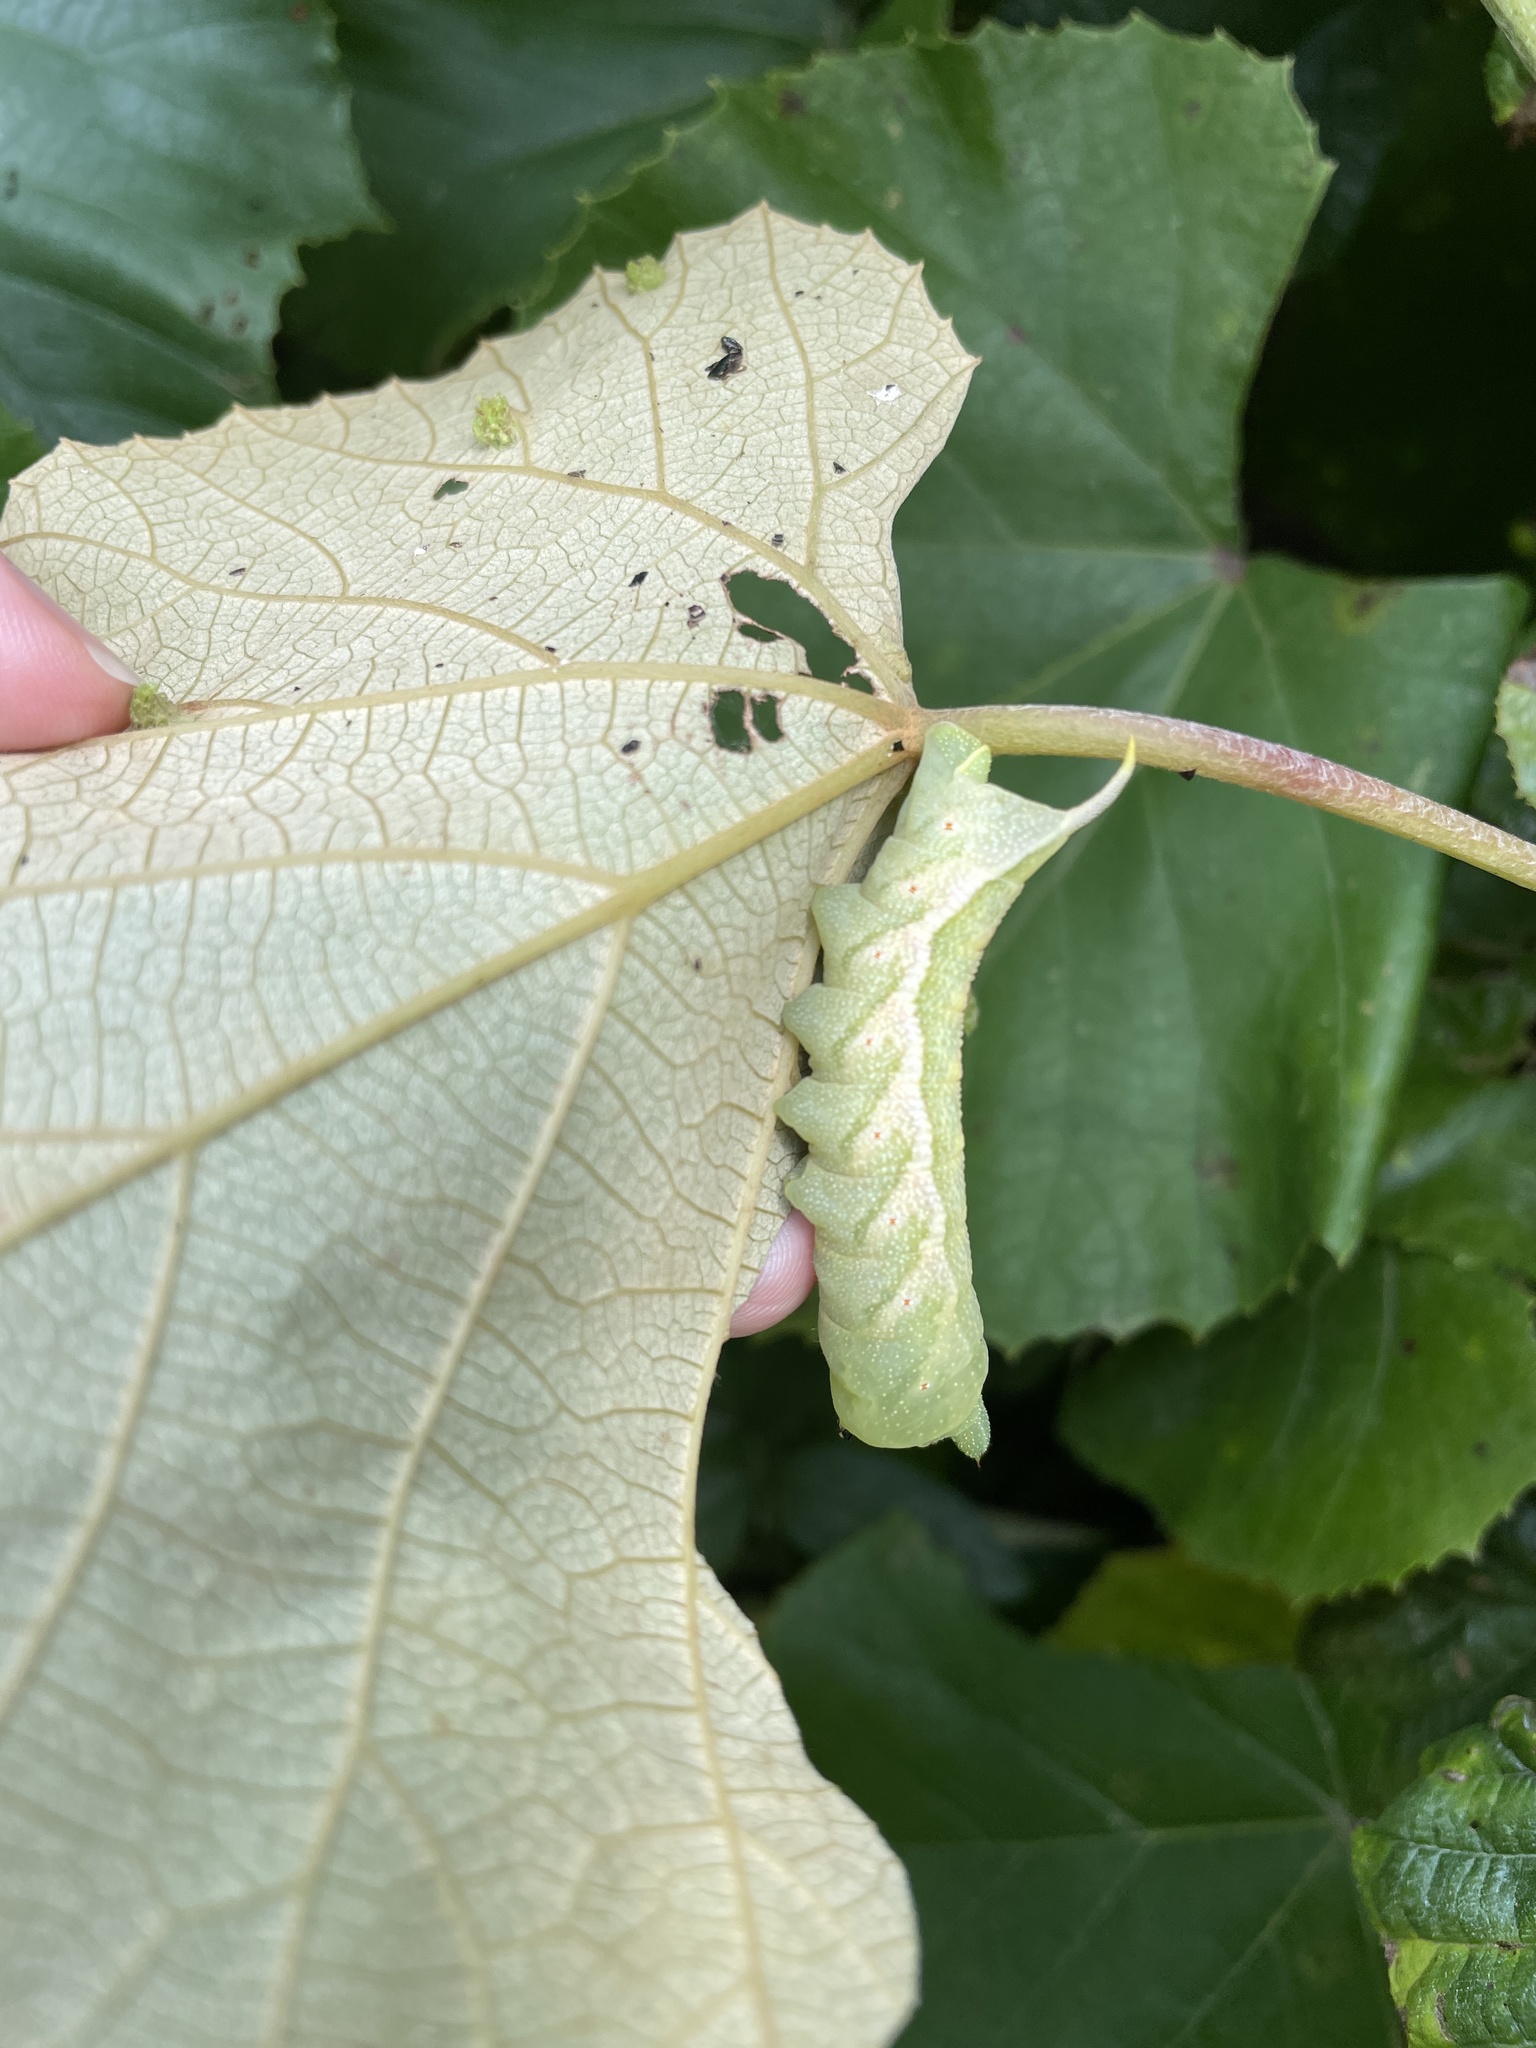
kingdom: Animalia
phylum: Arthropoda
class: Insecta
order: Lepidoptera
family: Sphingidae
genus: Darapsa
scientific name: Darapsa myron
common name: Hog sphinx
